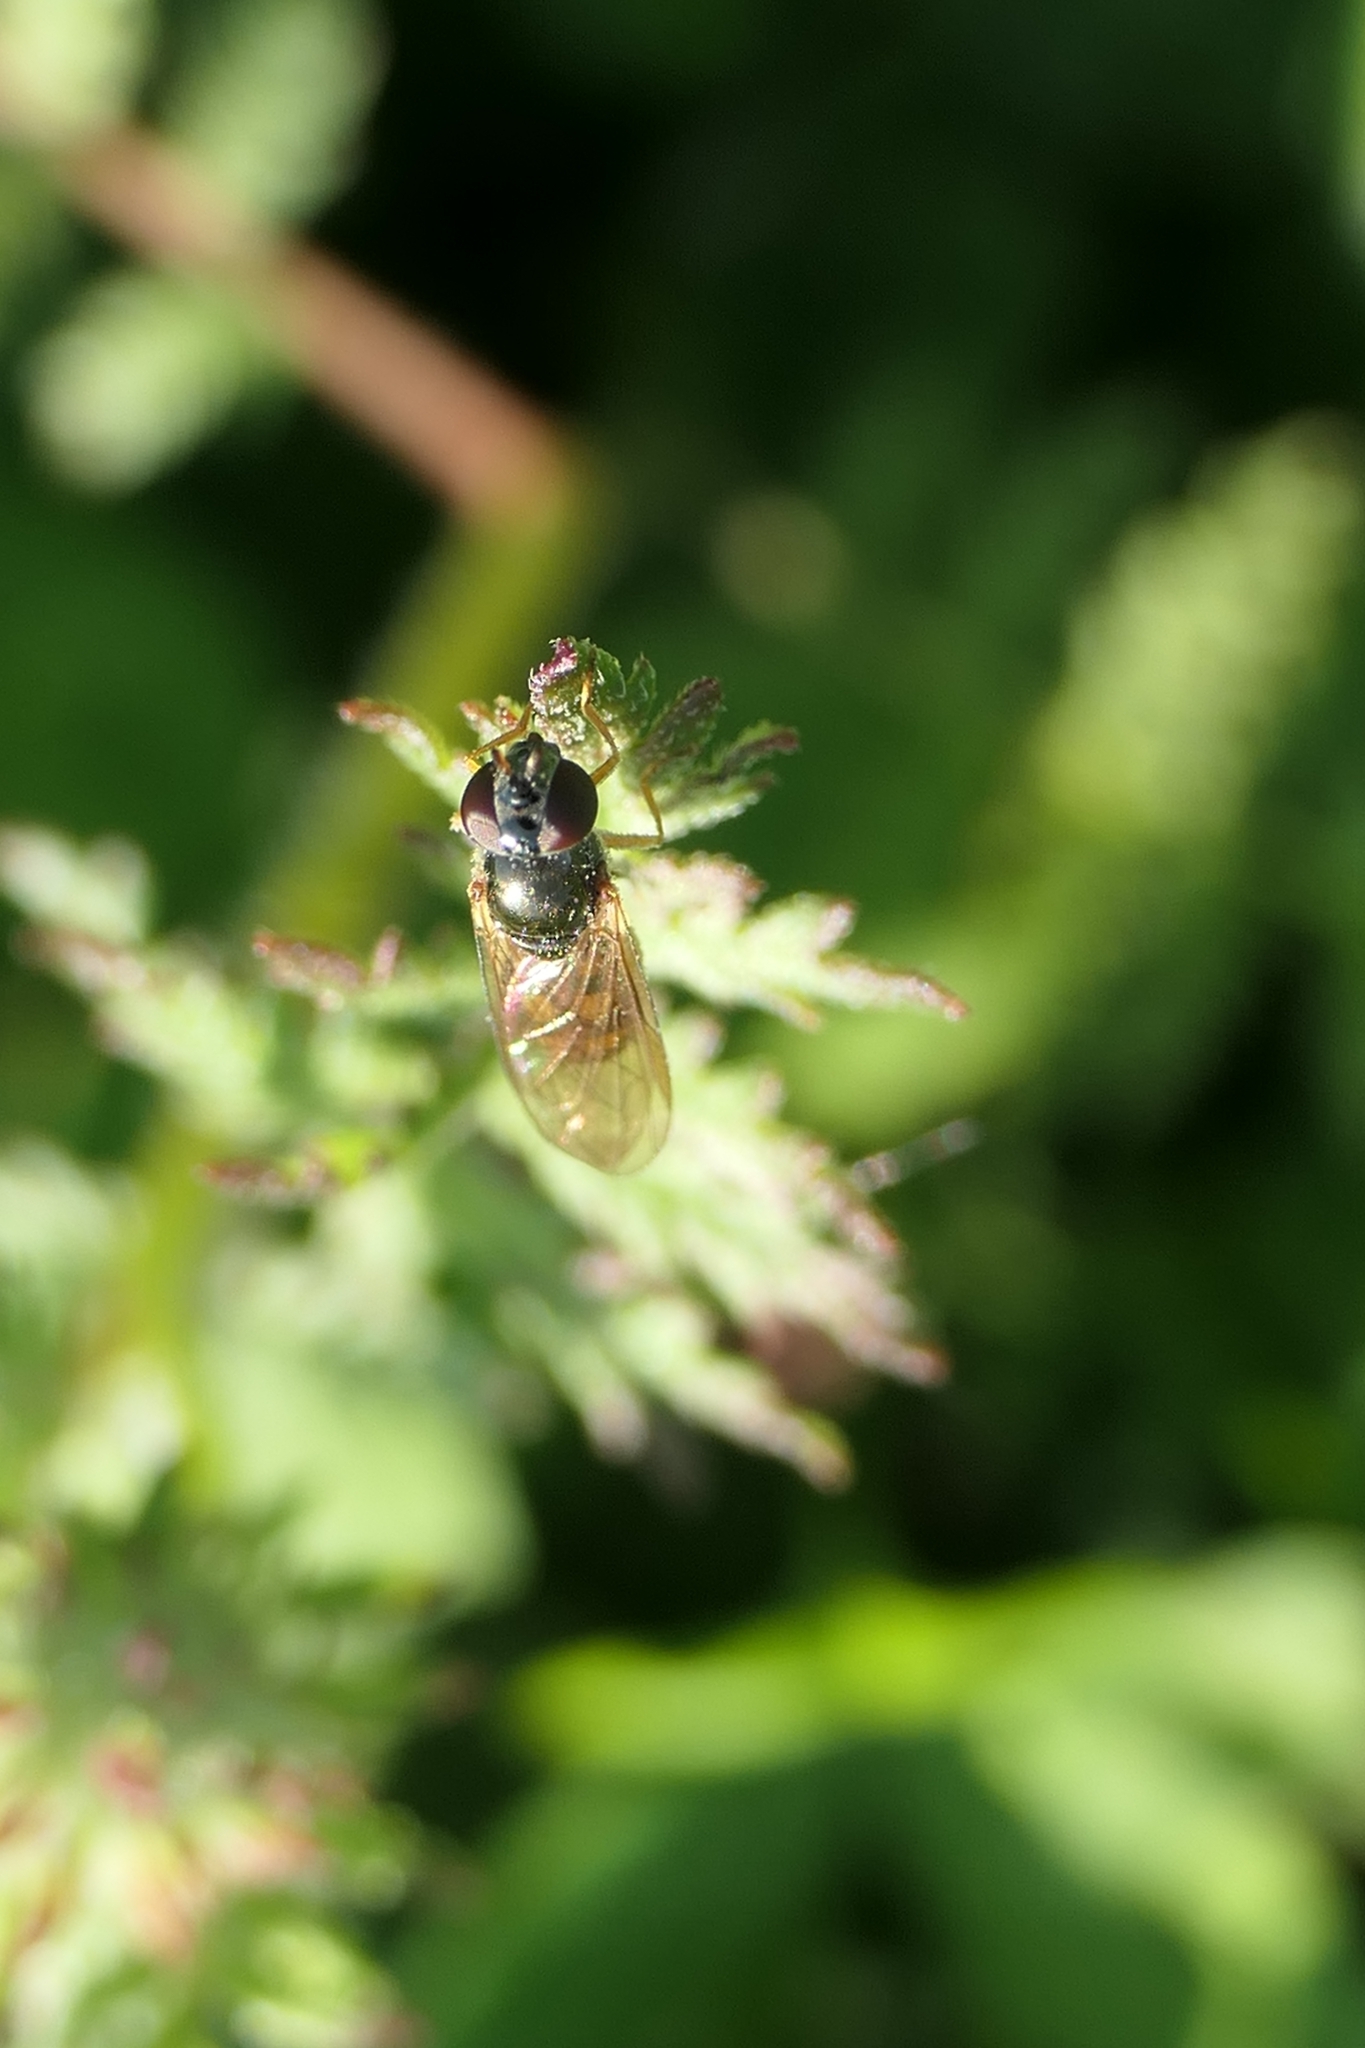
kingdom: Animalia
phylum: Arthropoda
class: Insecta
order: Diptera
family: Syrphidae
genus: Melanostoma
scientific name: Melanostoma fasciatum
